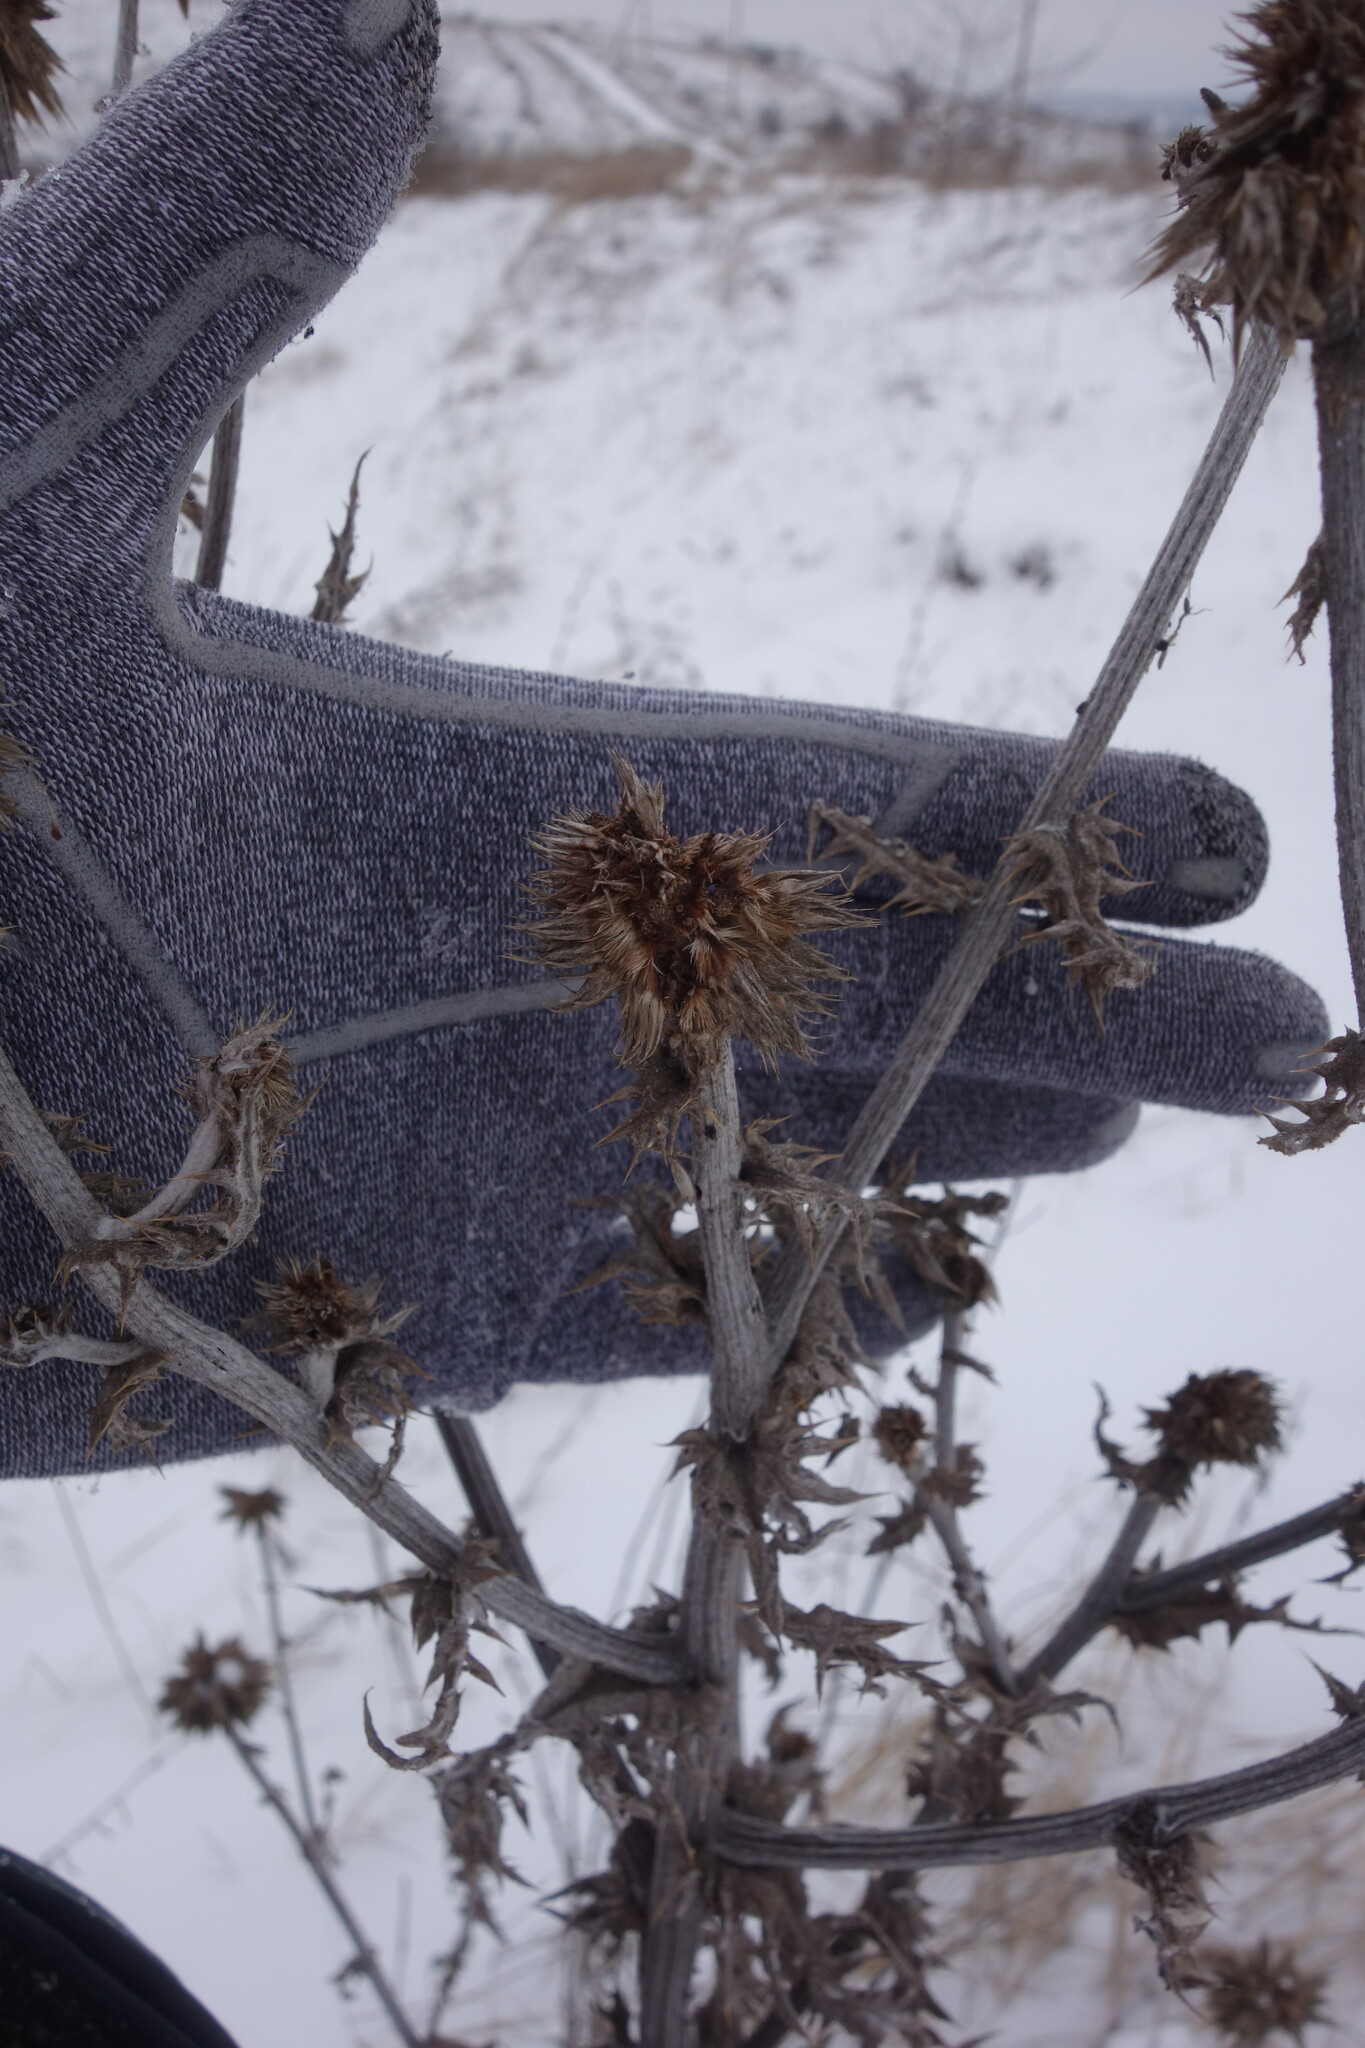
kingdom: Plantae
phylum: Tracheophyta
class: Magnoliopsida
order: Asterales
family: Asteraceae
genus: Echinops
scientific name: Echinops sphaerocephalus
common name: Glandular globe-thistle
